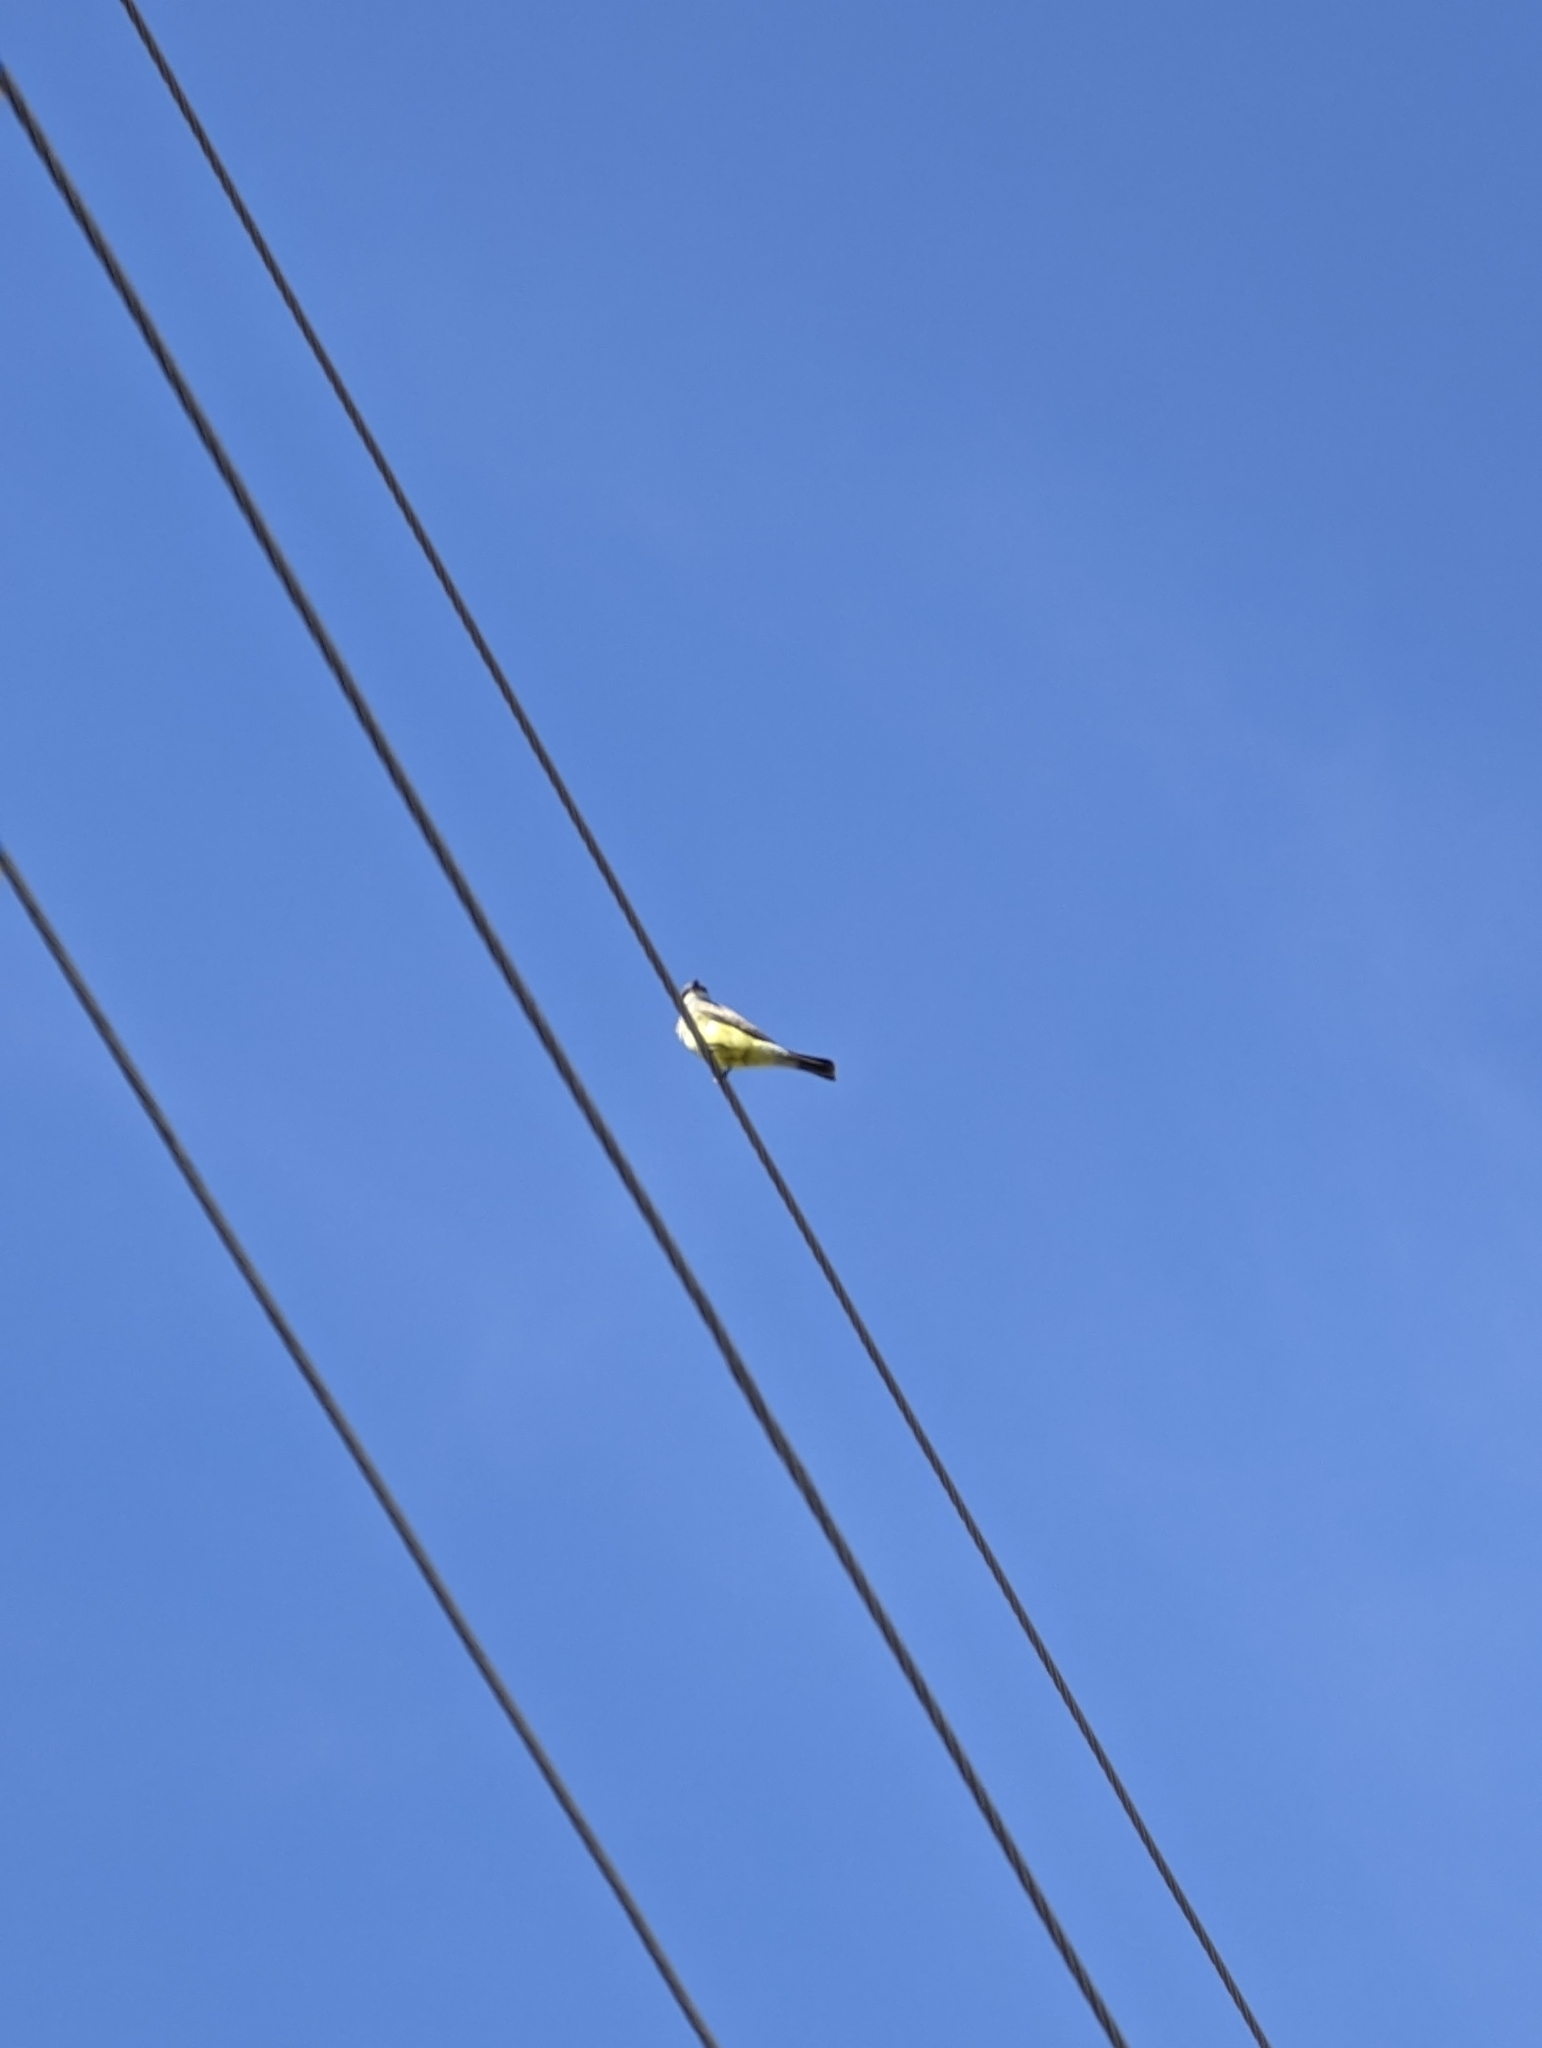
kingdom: Animalia
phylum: Chordata
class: Aves
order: Passeriformes
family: Tyrannidae
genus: Tyrannus
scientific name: Tyrannus vociferans
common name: Cassin's kingbird
